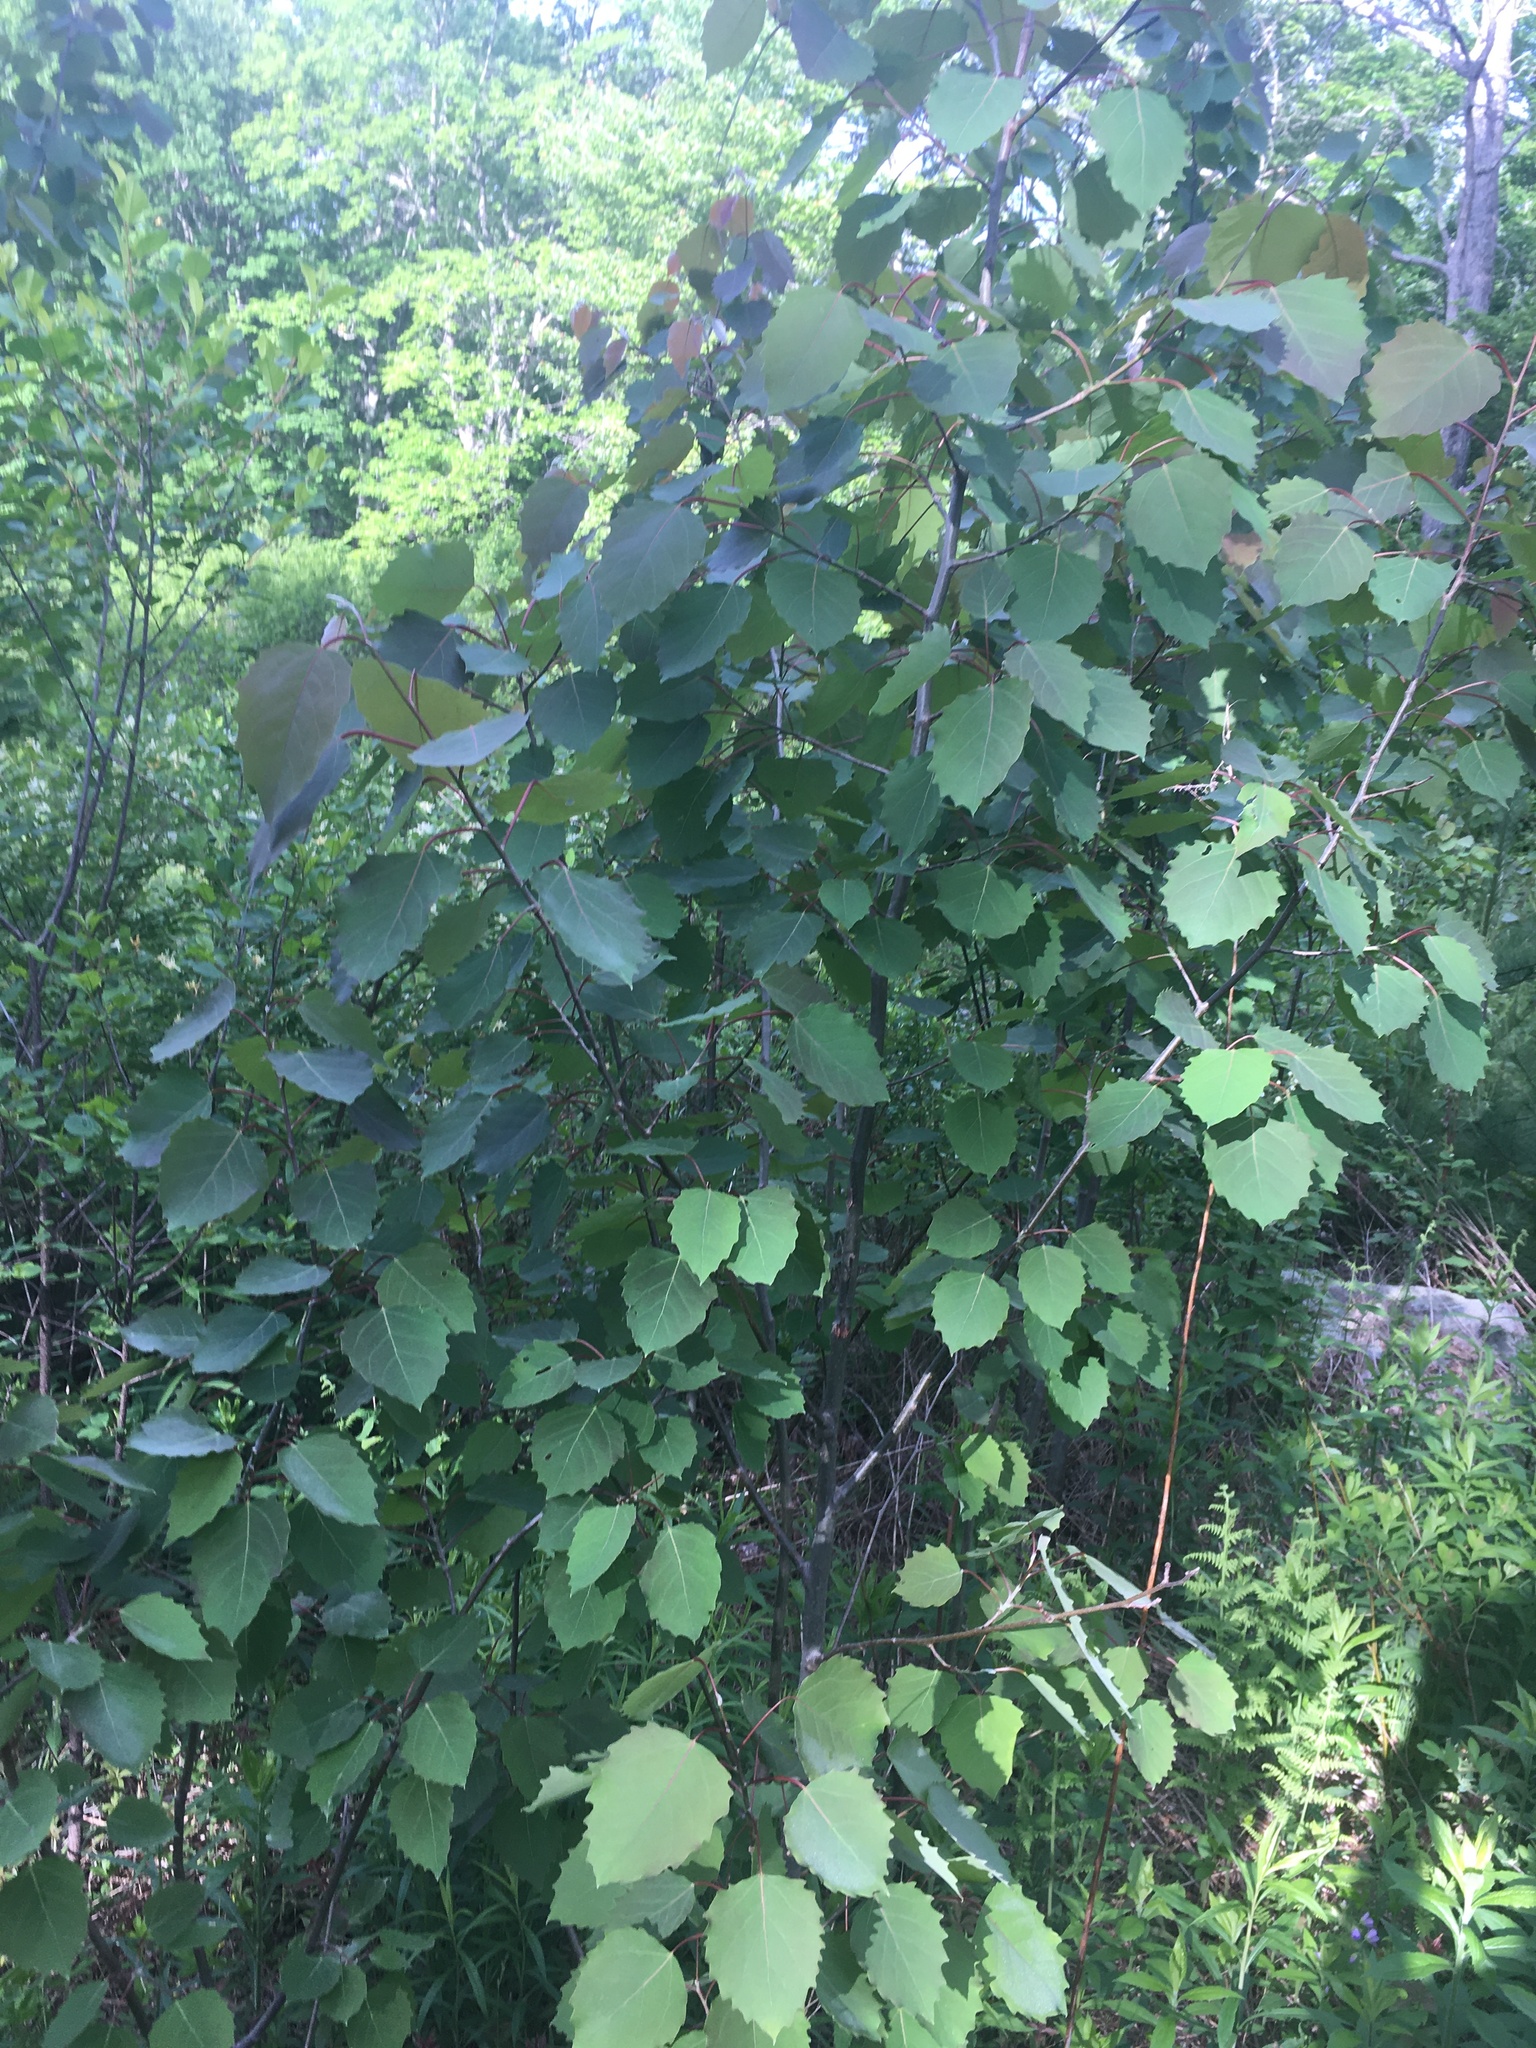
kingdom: Plantae
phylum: Tracheophyta
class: Magnoliopsida
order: Malpighiales
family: Salicaceae
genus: Populus
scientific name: Populus grandidentata
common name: Bigtooth aspen
